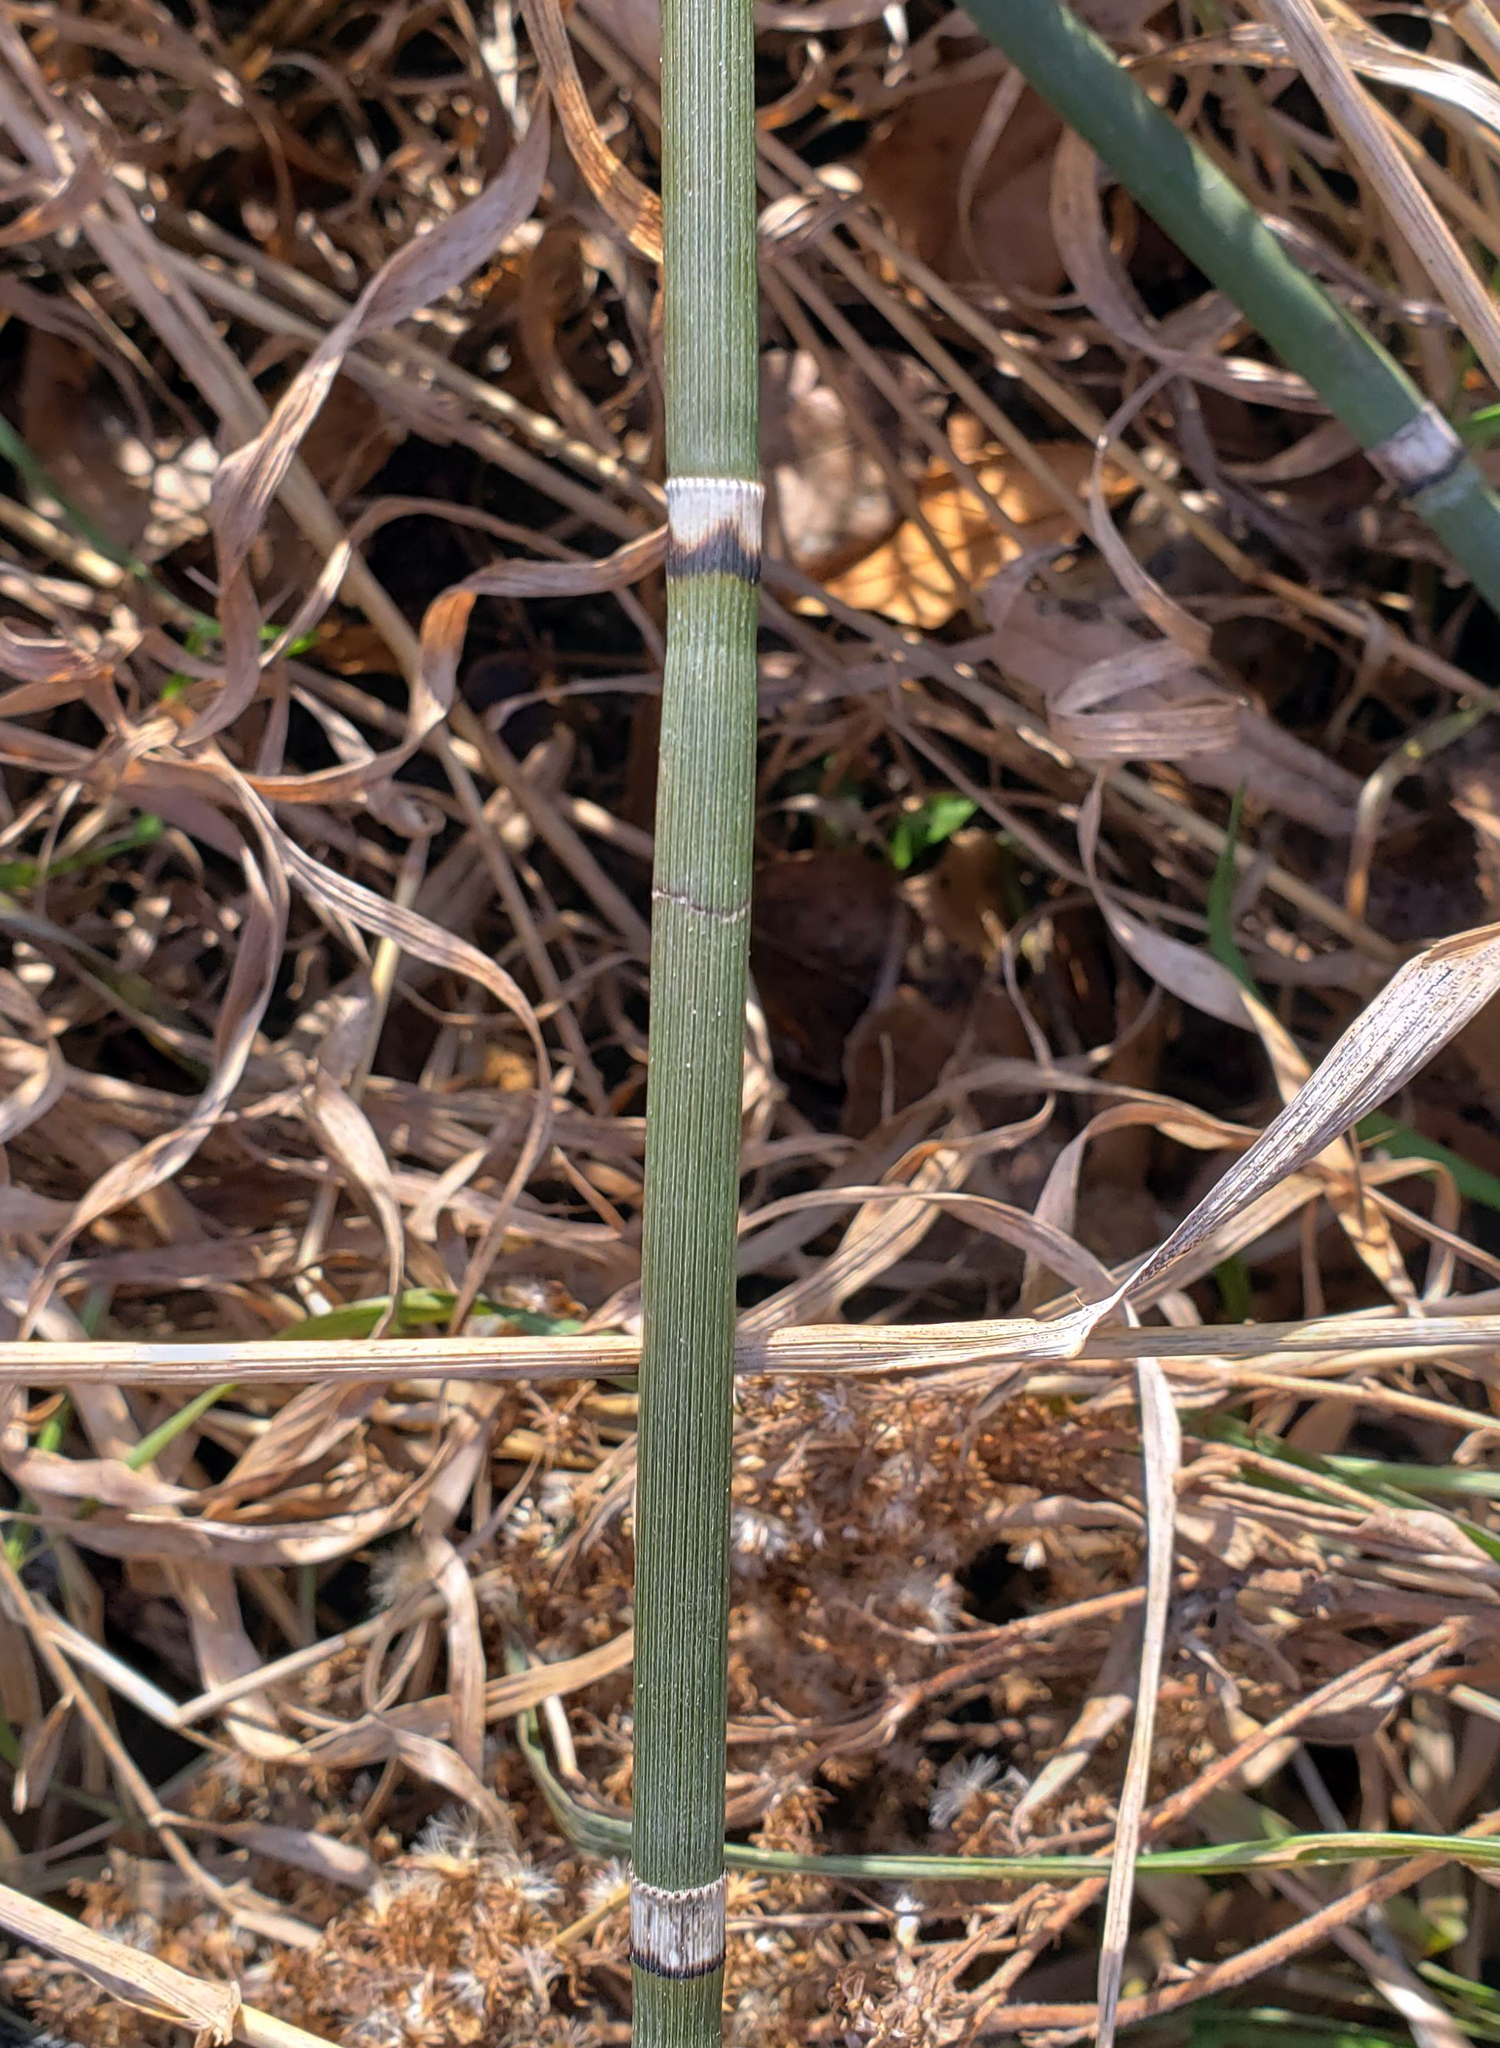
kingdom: Plantae
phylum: Tracheophyta
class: Polypodiopsida
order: Equisetales
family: Equisetaceae
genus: Equisetum
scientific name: Equisetum praealtum
